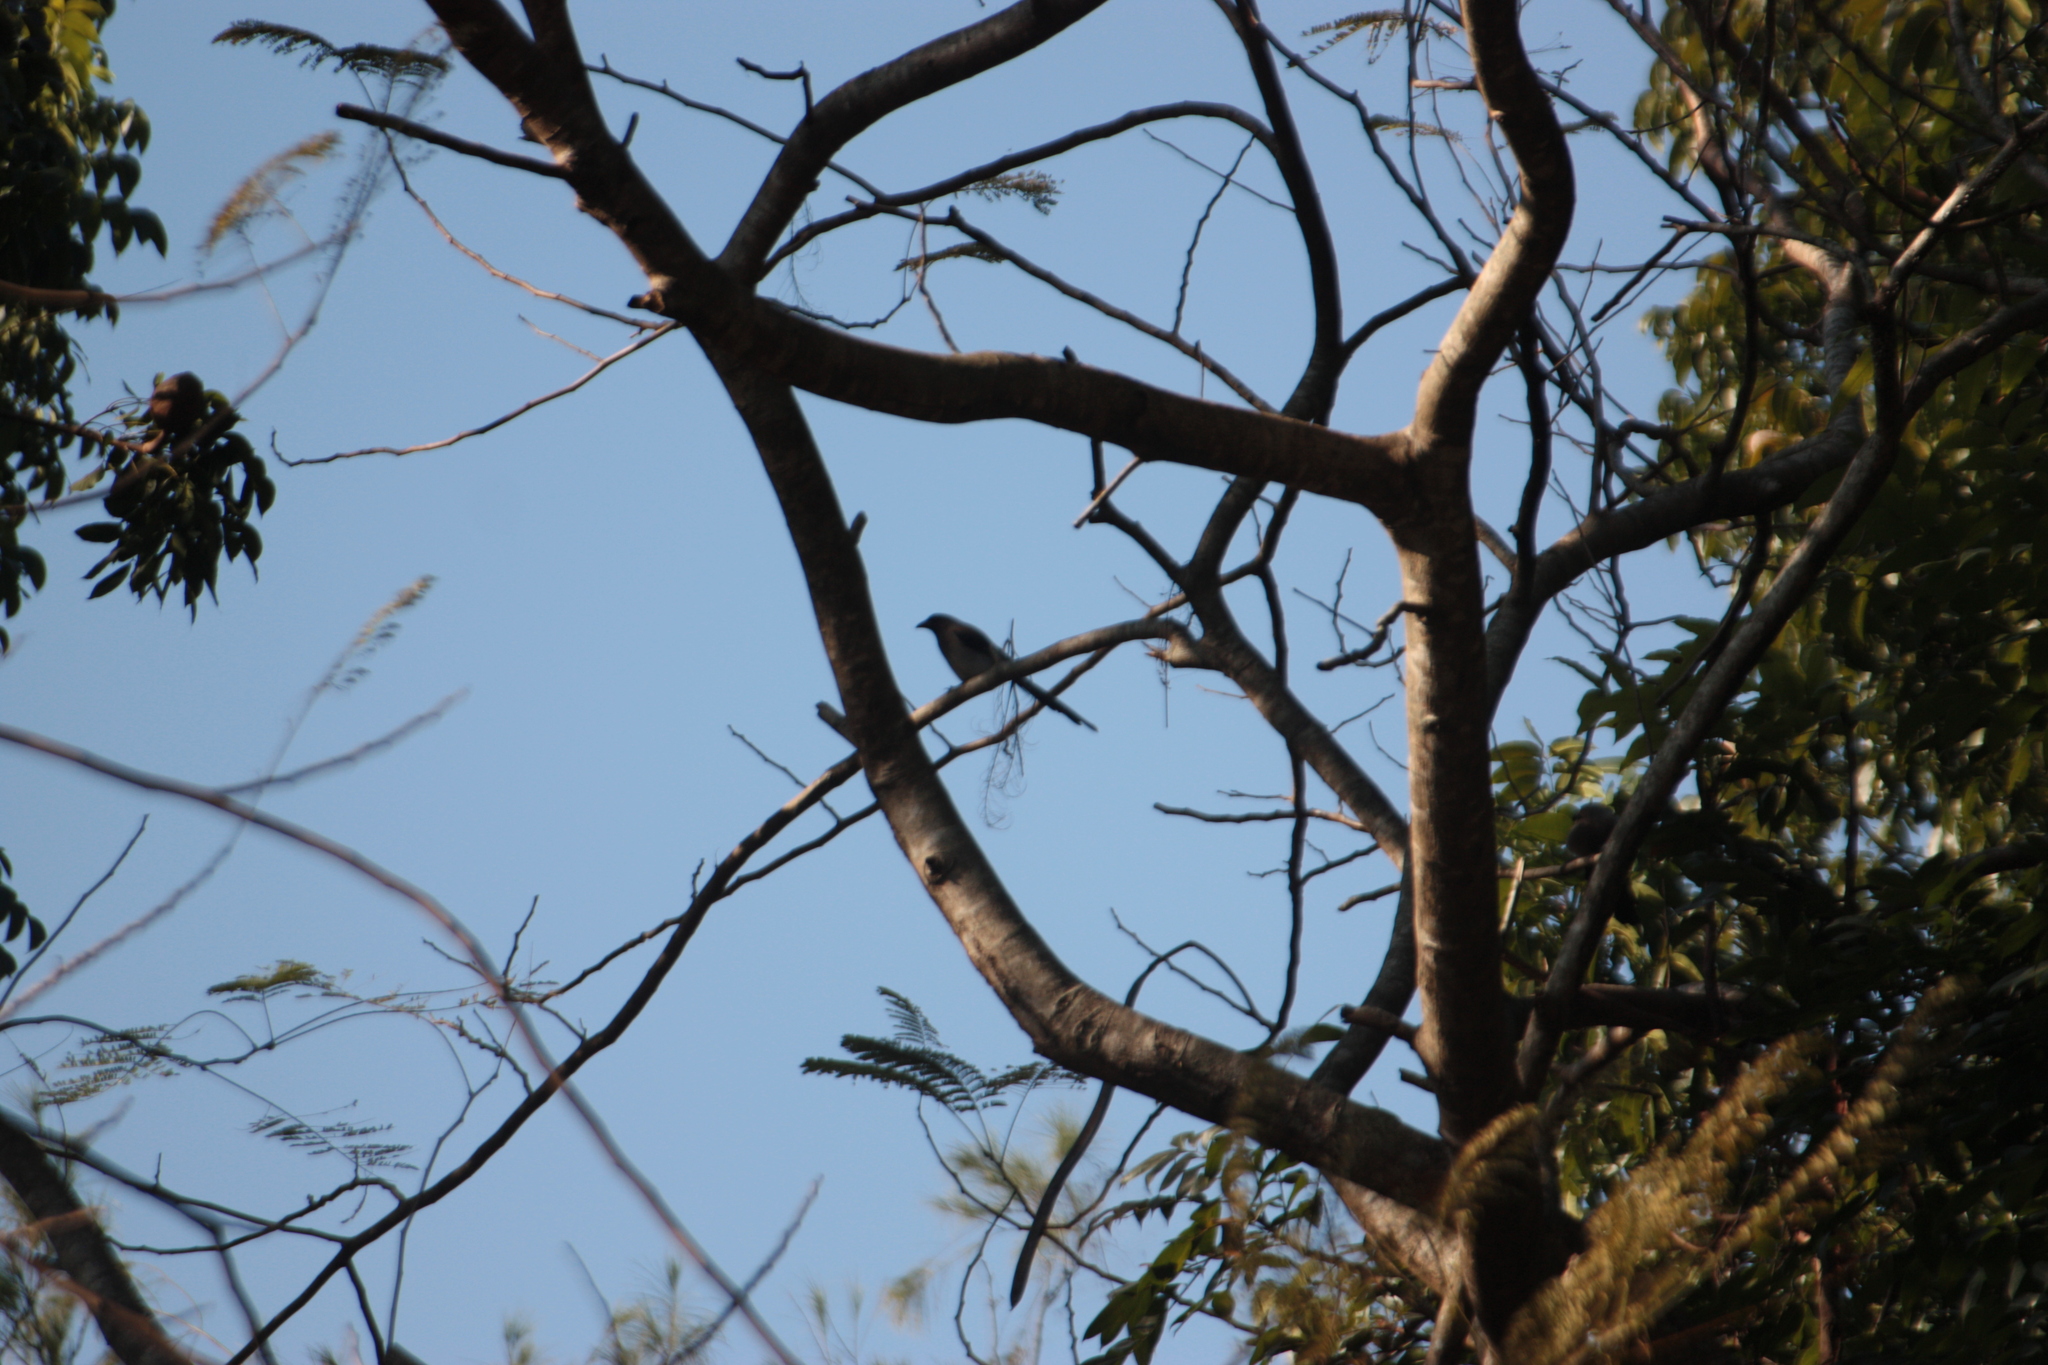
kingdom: Animalia
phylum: Chordata
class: Aves
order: Passeriformes
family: Corvidae
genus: Dendrocitta
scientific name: Dendrocitta formosae
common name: Grey treepie
